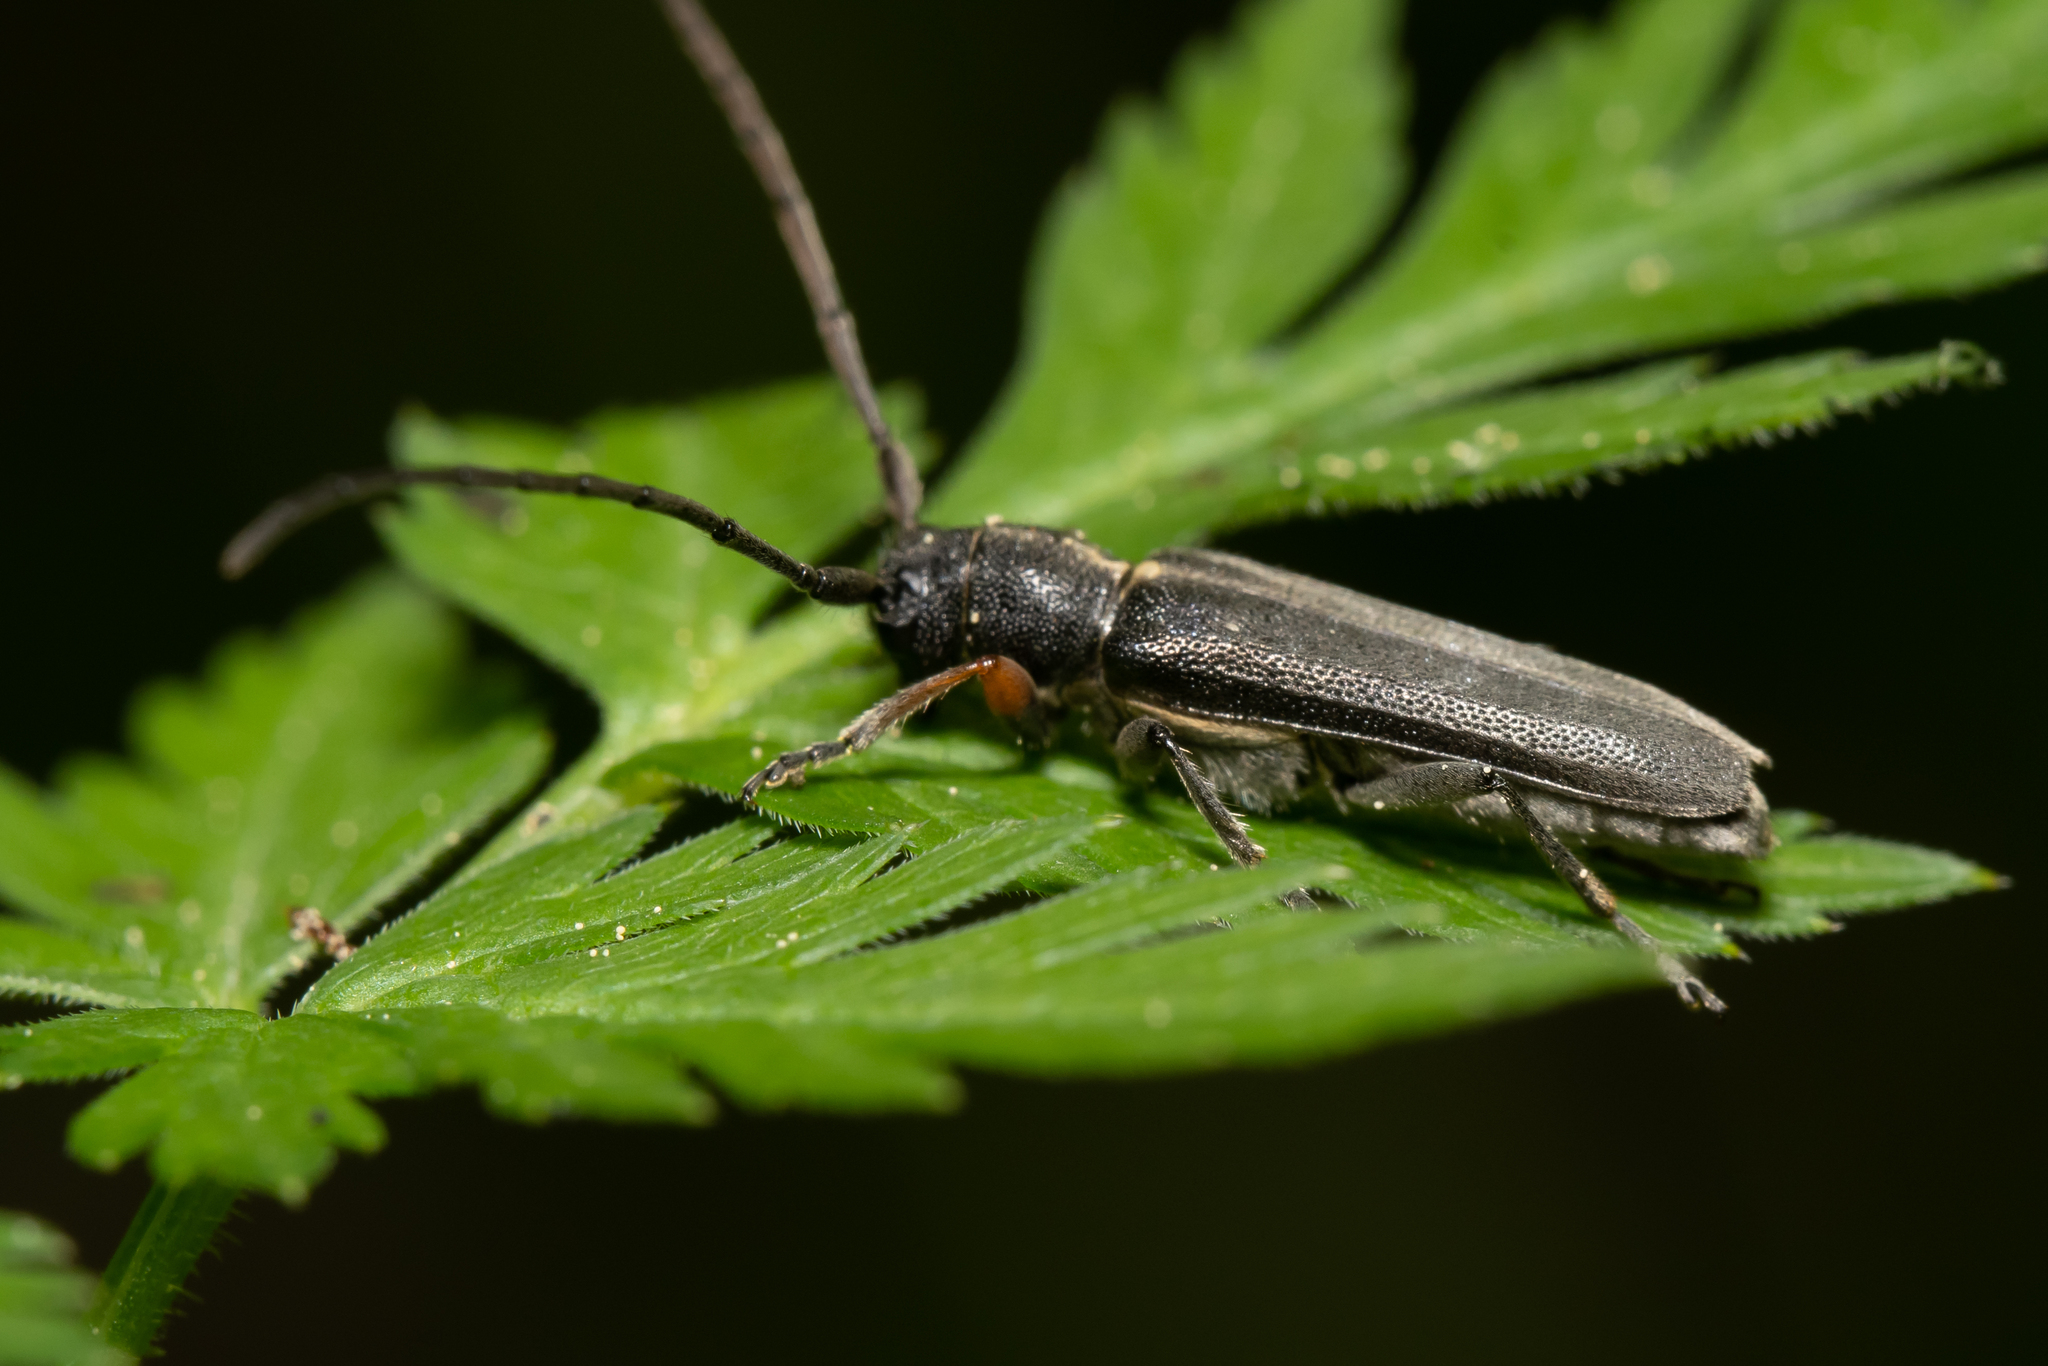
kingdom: Animalia
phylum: Arthropoda
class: Insecta
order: Coleoptera
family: Cerambycidae
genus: Phytoecia
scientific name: Phytoecia cylindrica
